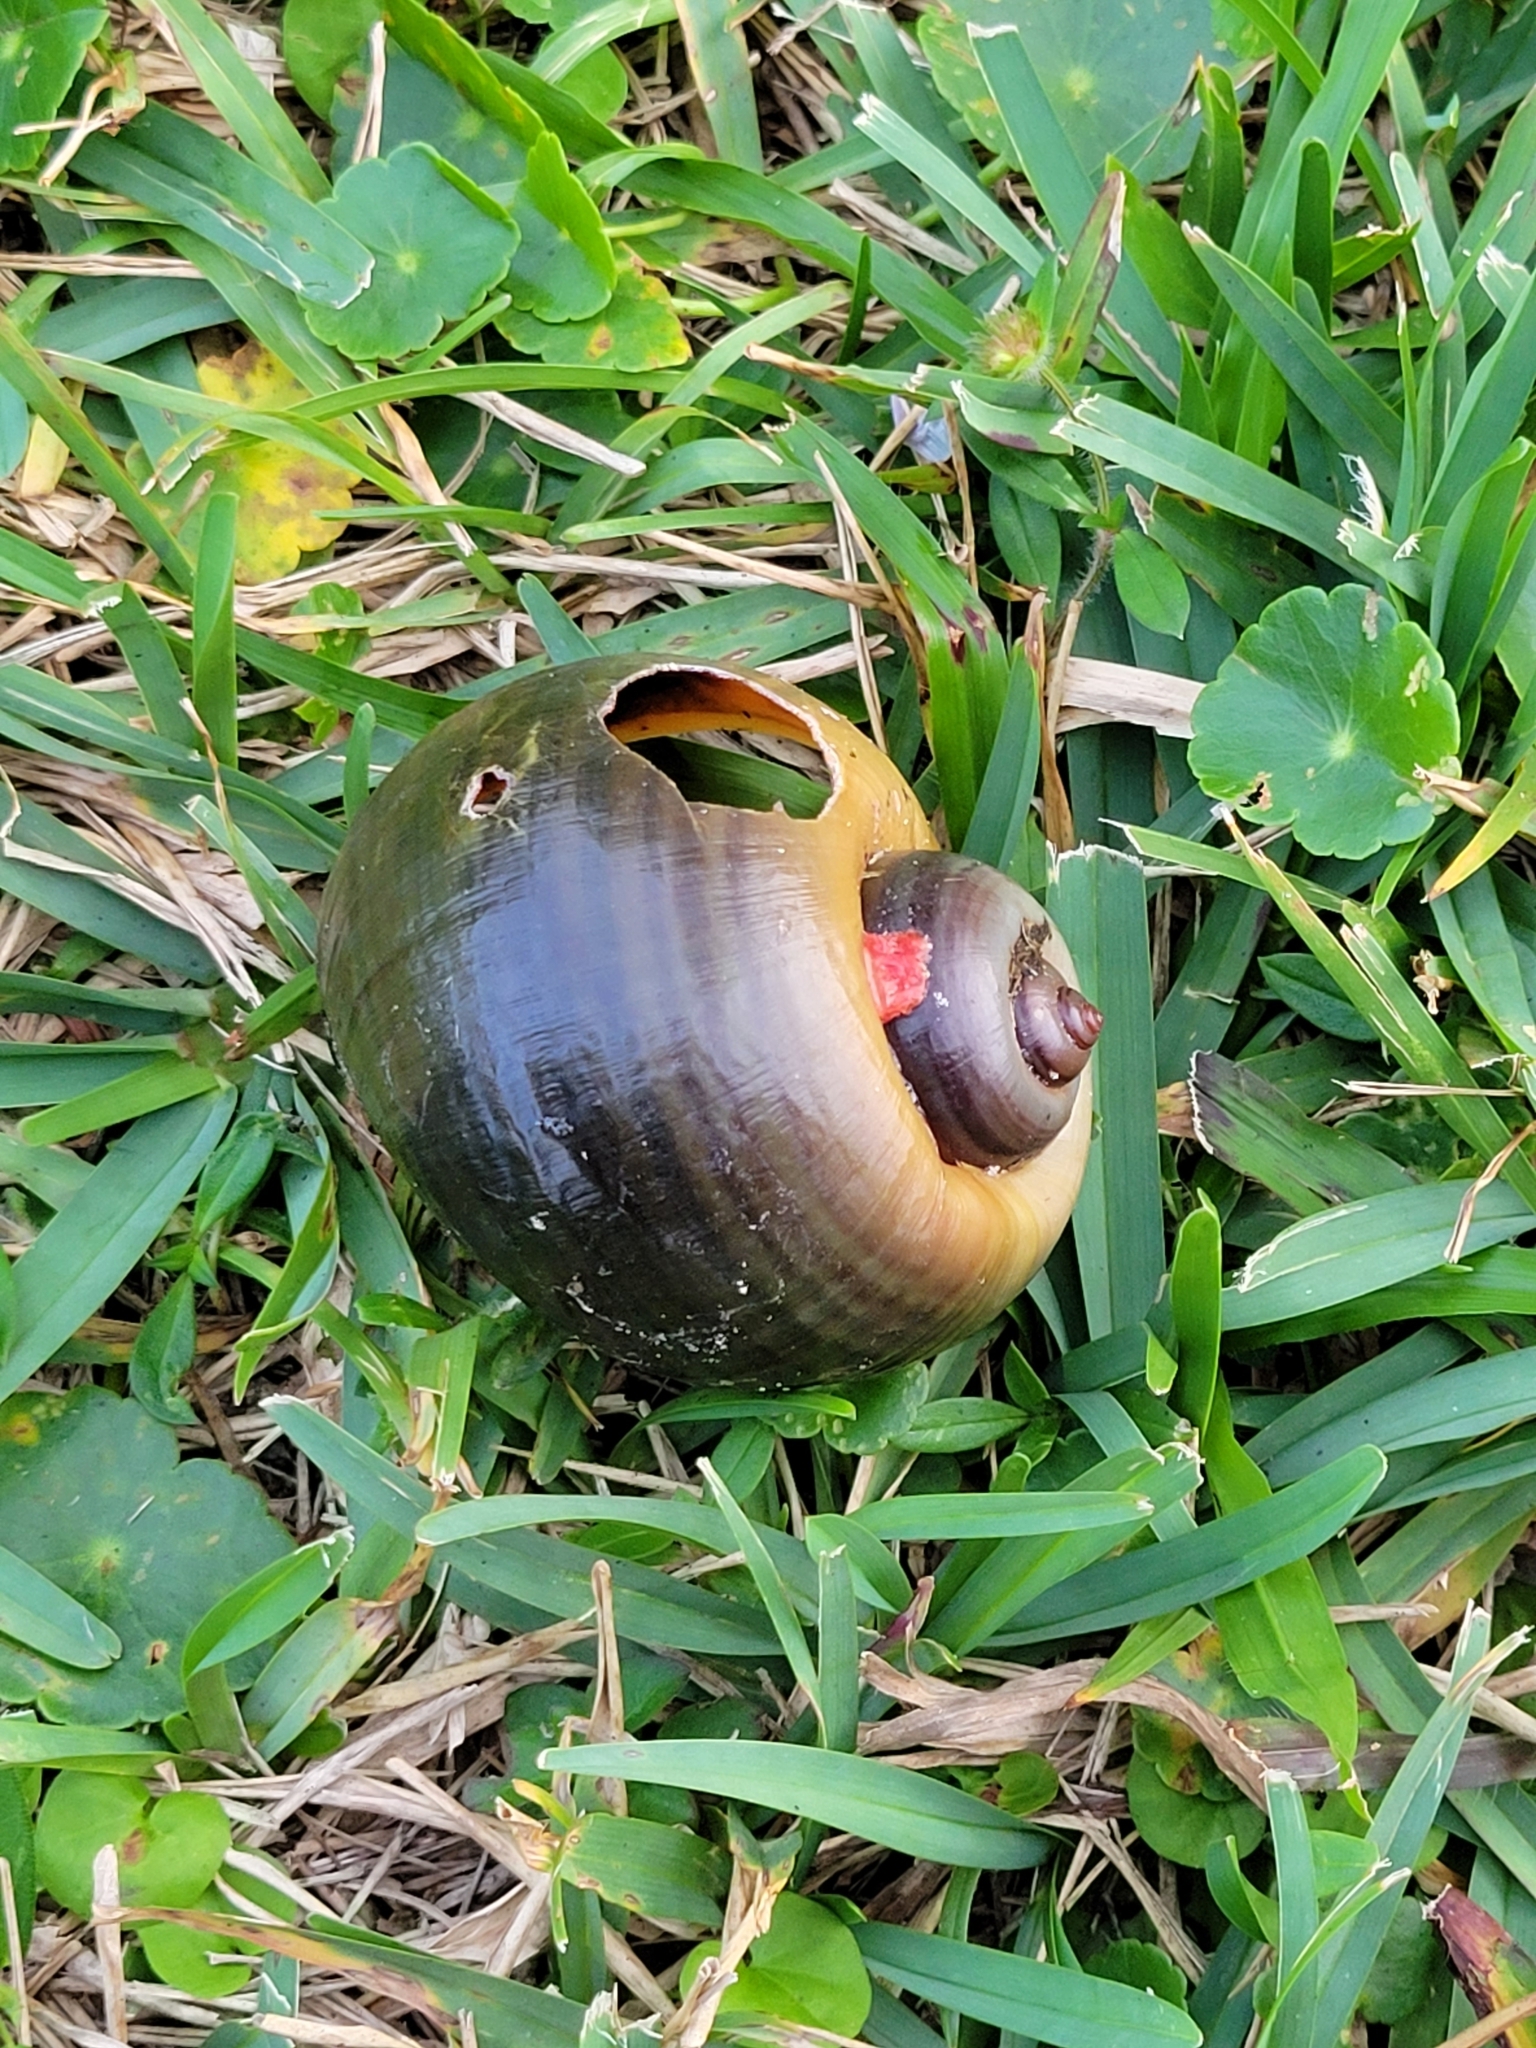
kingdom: Animalia
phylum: Mollusca
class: Gastropoda
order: Architaenioglossa
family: Ampullariidae
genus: Pomacea
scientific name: Pomacea maculata
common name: Giant applesnail
